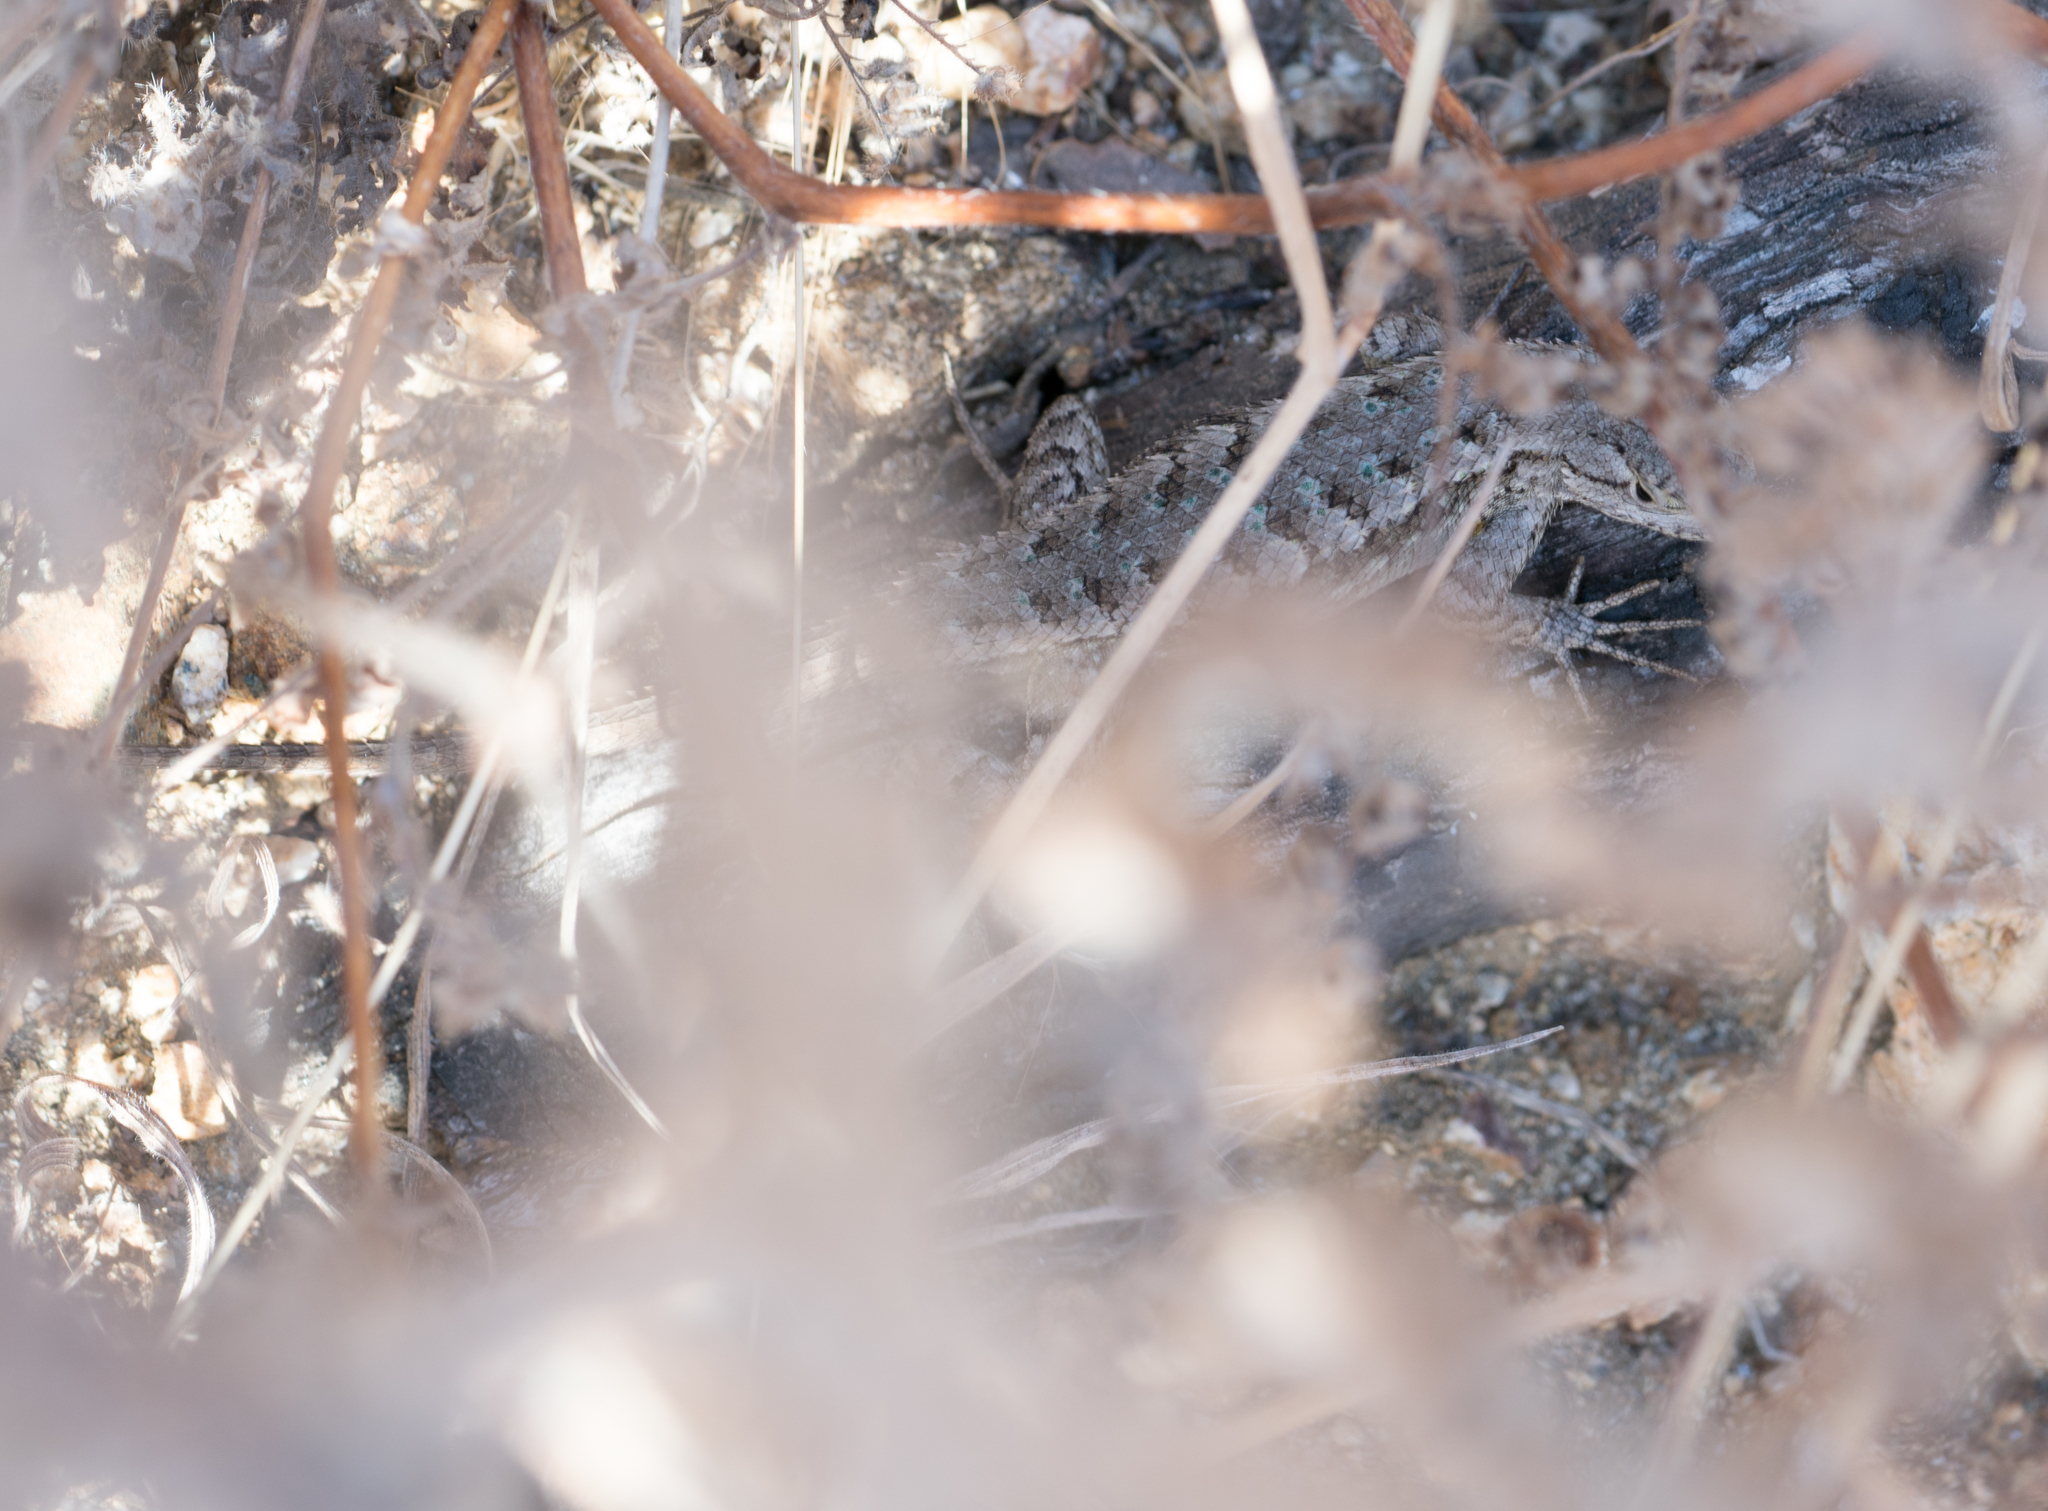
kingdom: Animalia
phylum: Chordata
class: Squamata
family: Phrynosomatidae
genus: Sceloporus
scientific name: Sceloporus occidentalis
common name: Western fence lizard
